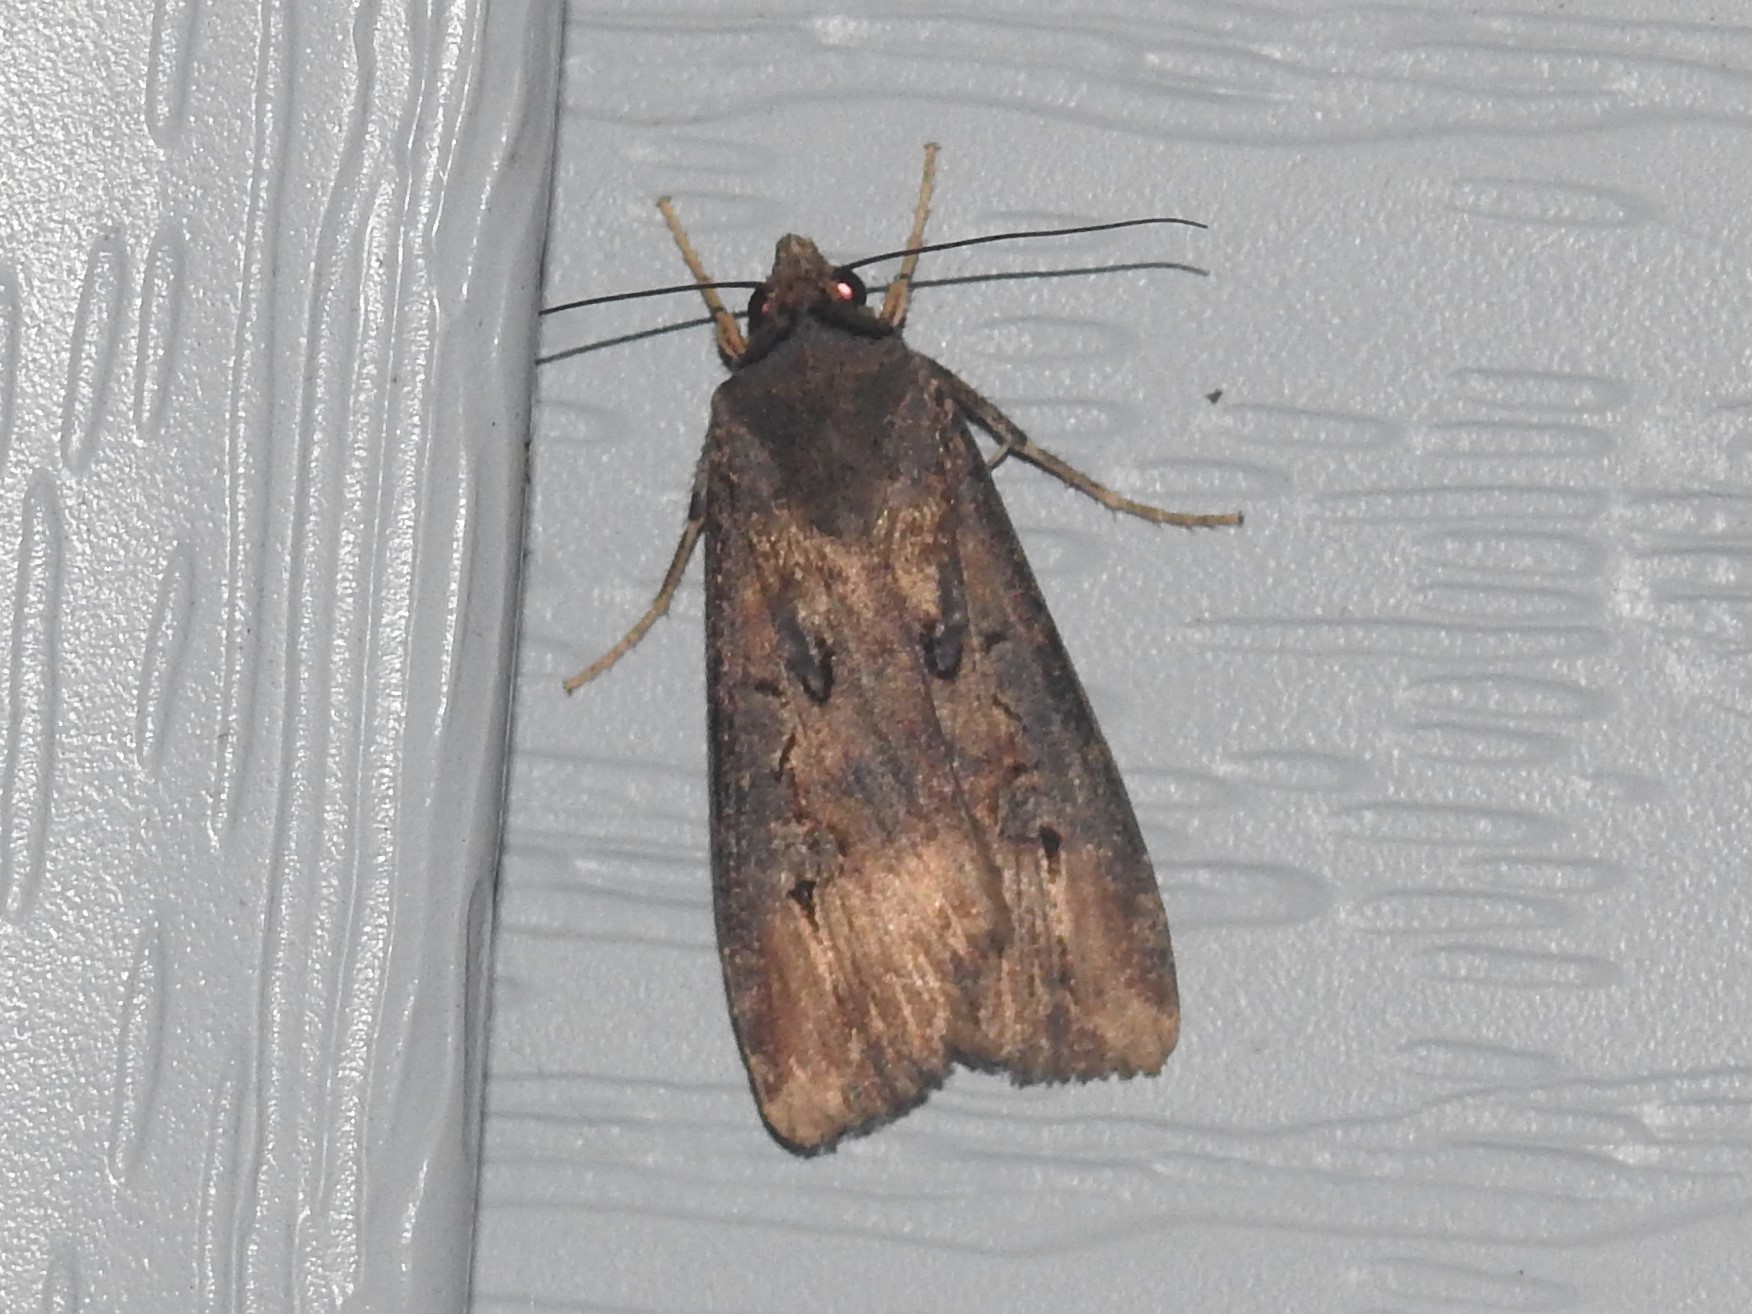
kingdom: Animalia
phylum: Arthropoda
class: Insecta
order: Lepidoptera
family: Noctuidae
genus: Agrotis
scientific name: Agrotis ipsilon
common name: Dark sword-grass
